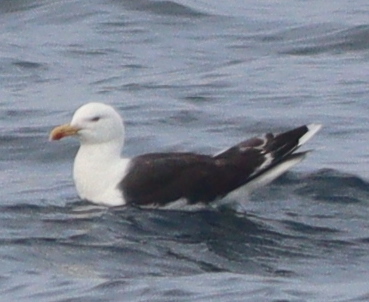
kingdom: Animalia
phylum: Chordata
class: Aves
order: Charadriiformes
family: Laridae
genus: Larus
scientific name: Larus marinus
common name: Great black-backed gull
